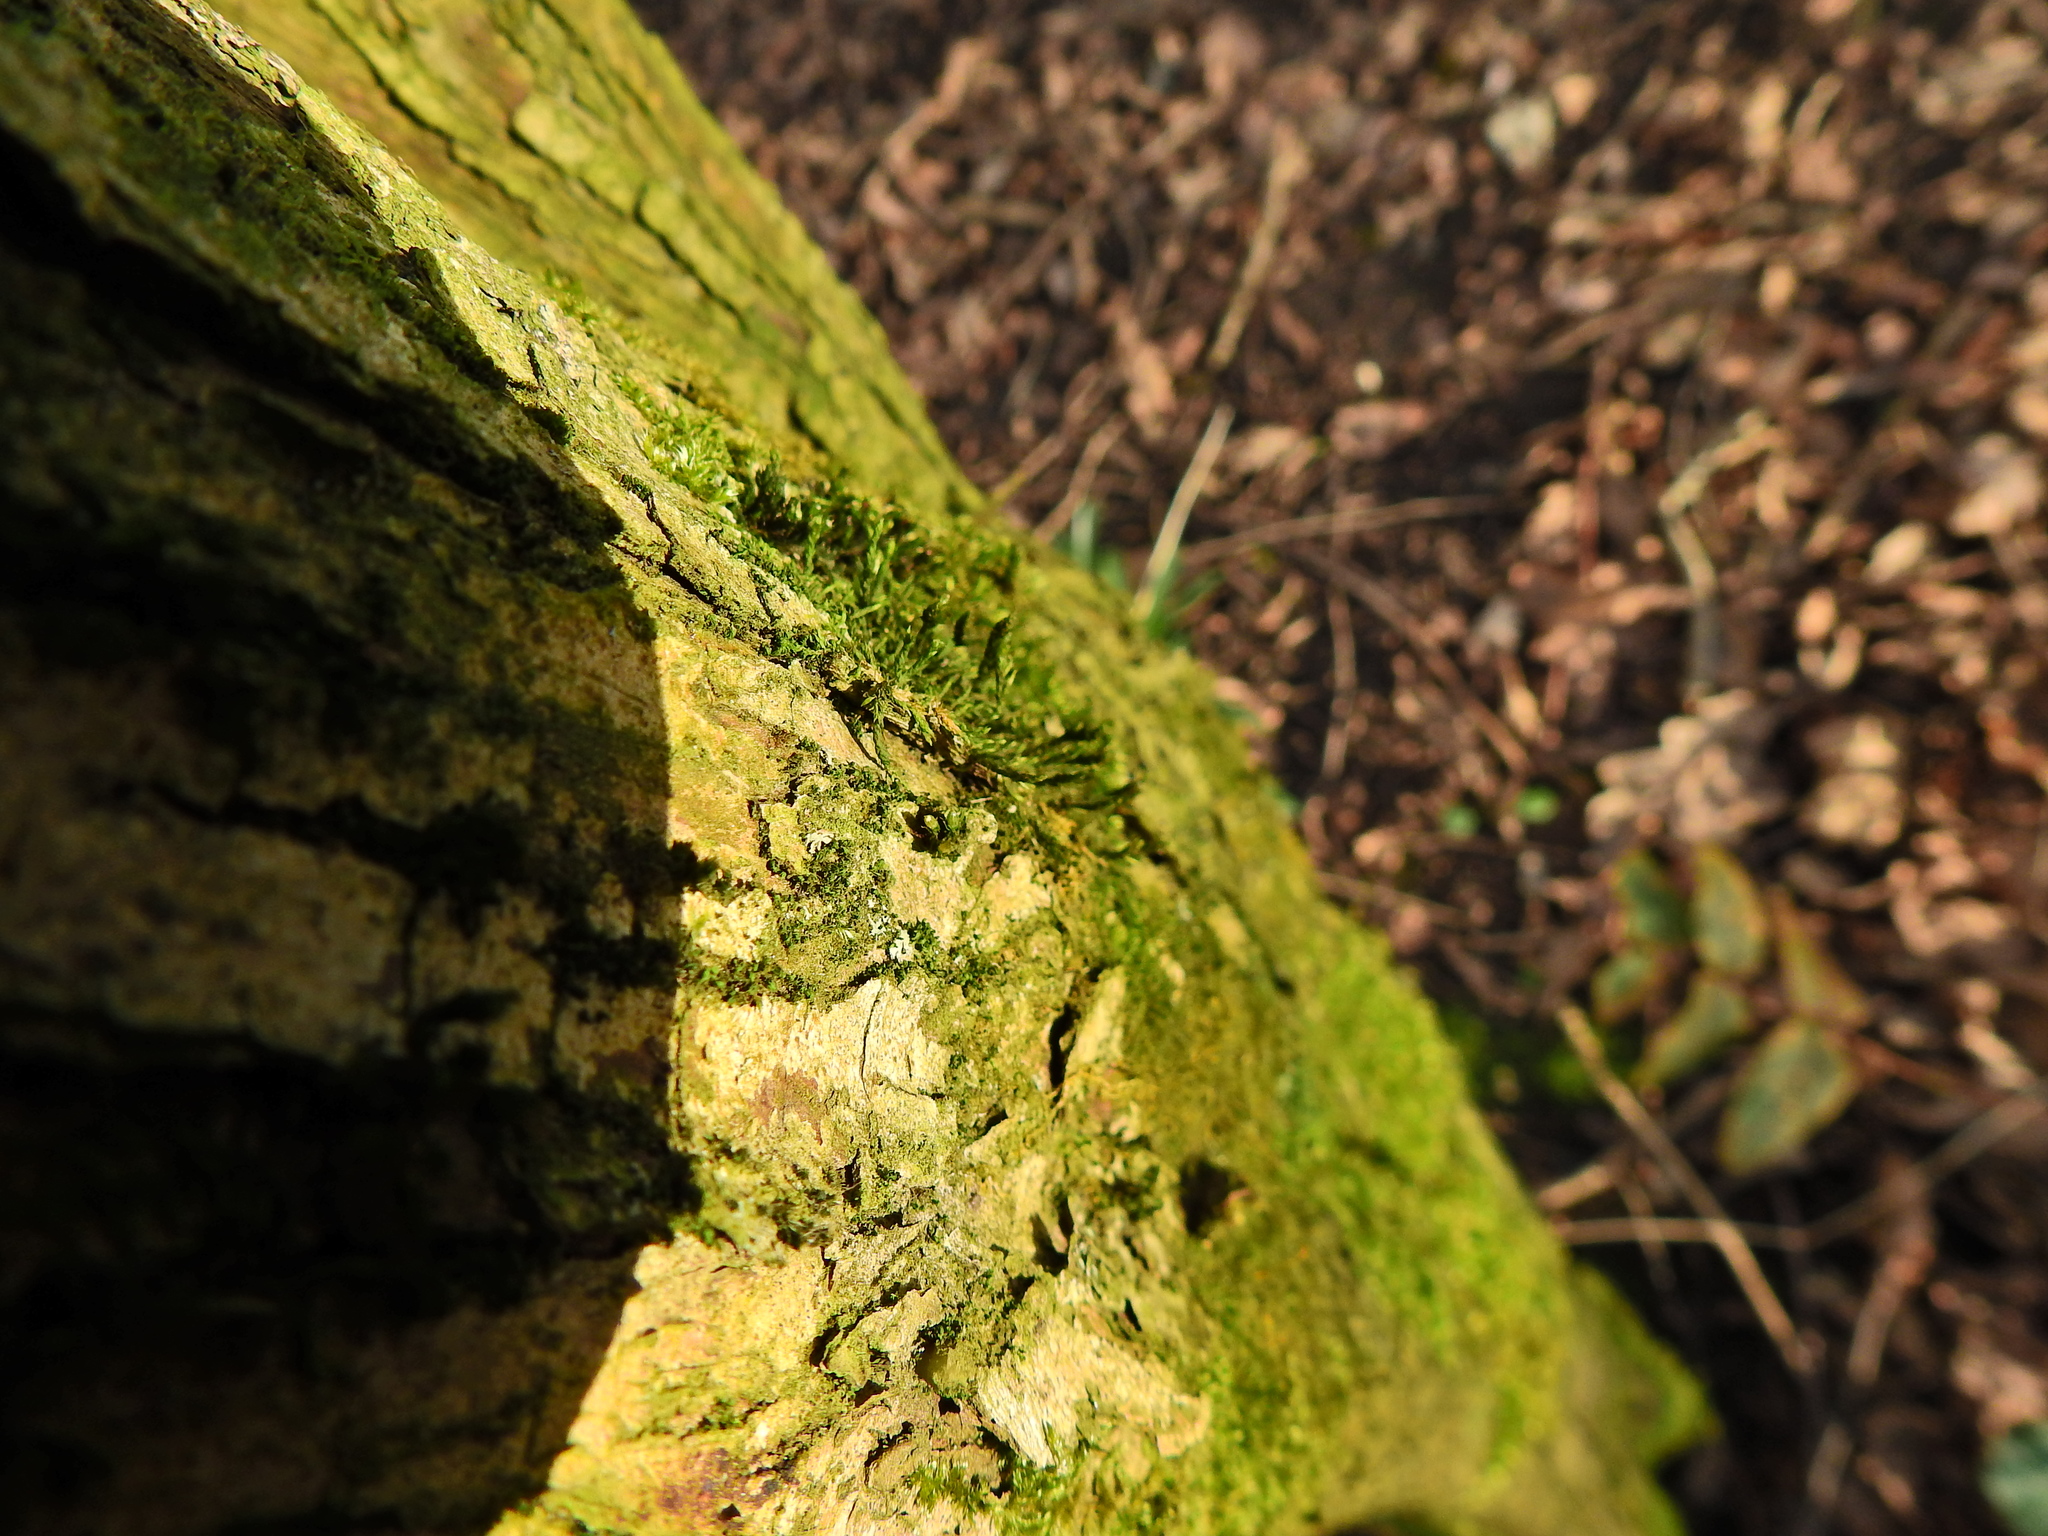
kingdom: Plantae
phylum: Bryophyta
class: Bryopsida
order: Hypnales
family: Cryphaeaceae
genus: Cryphaea
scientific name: Cryphaea heteromalla
